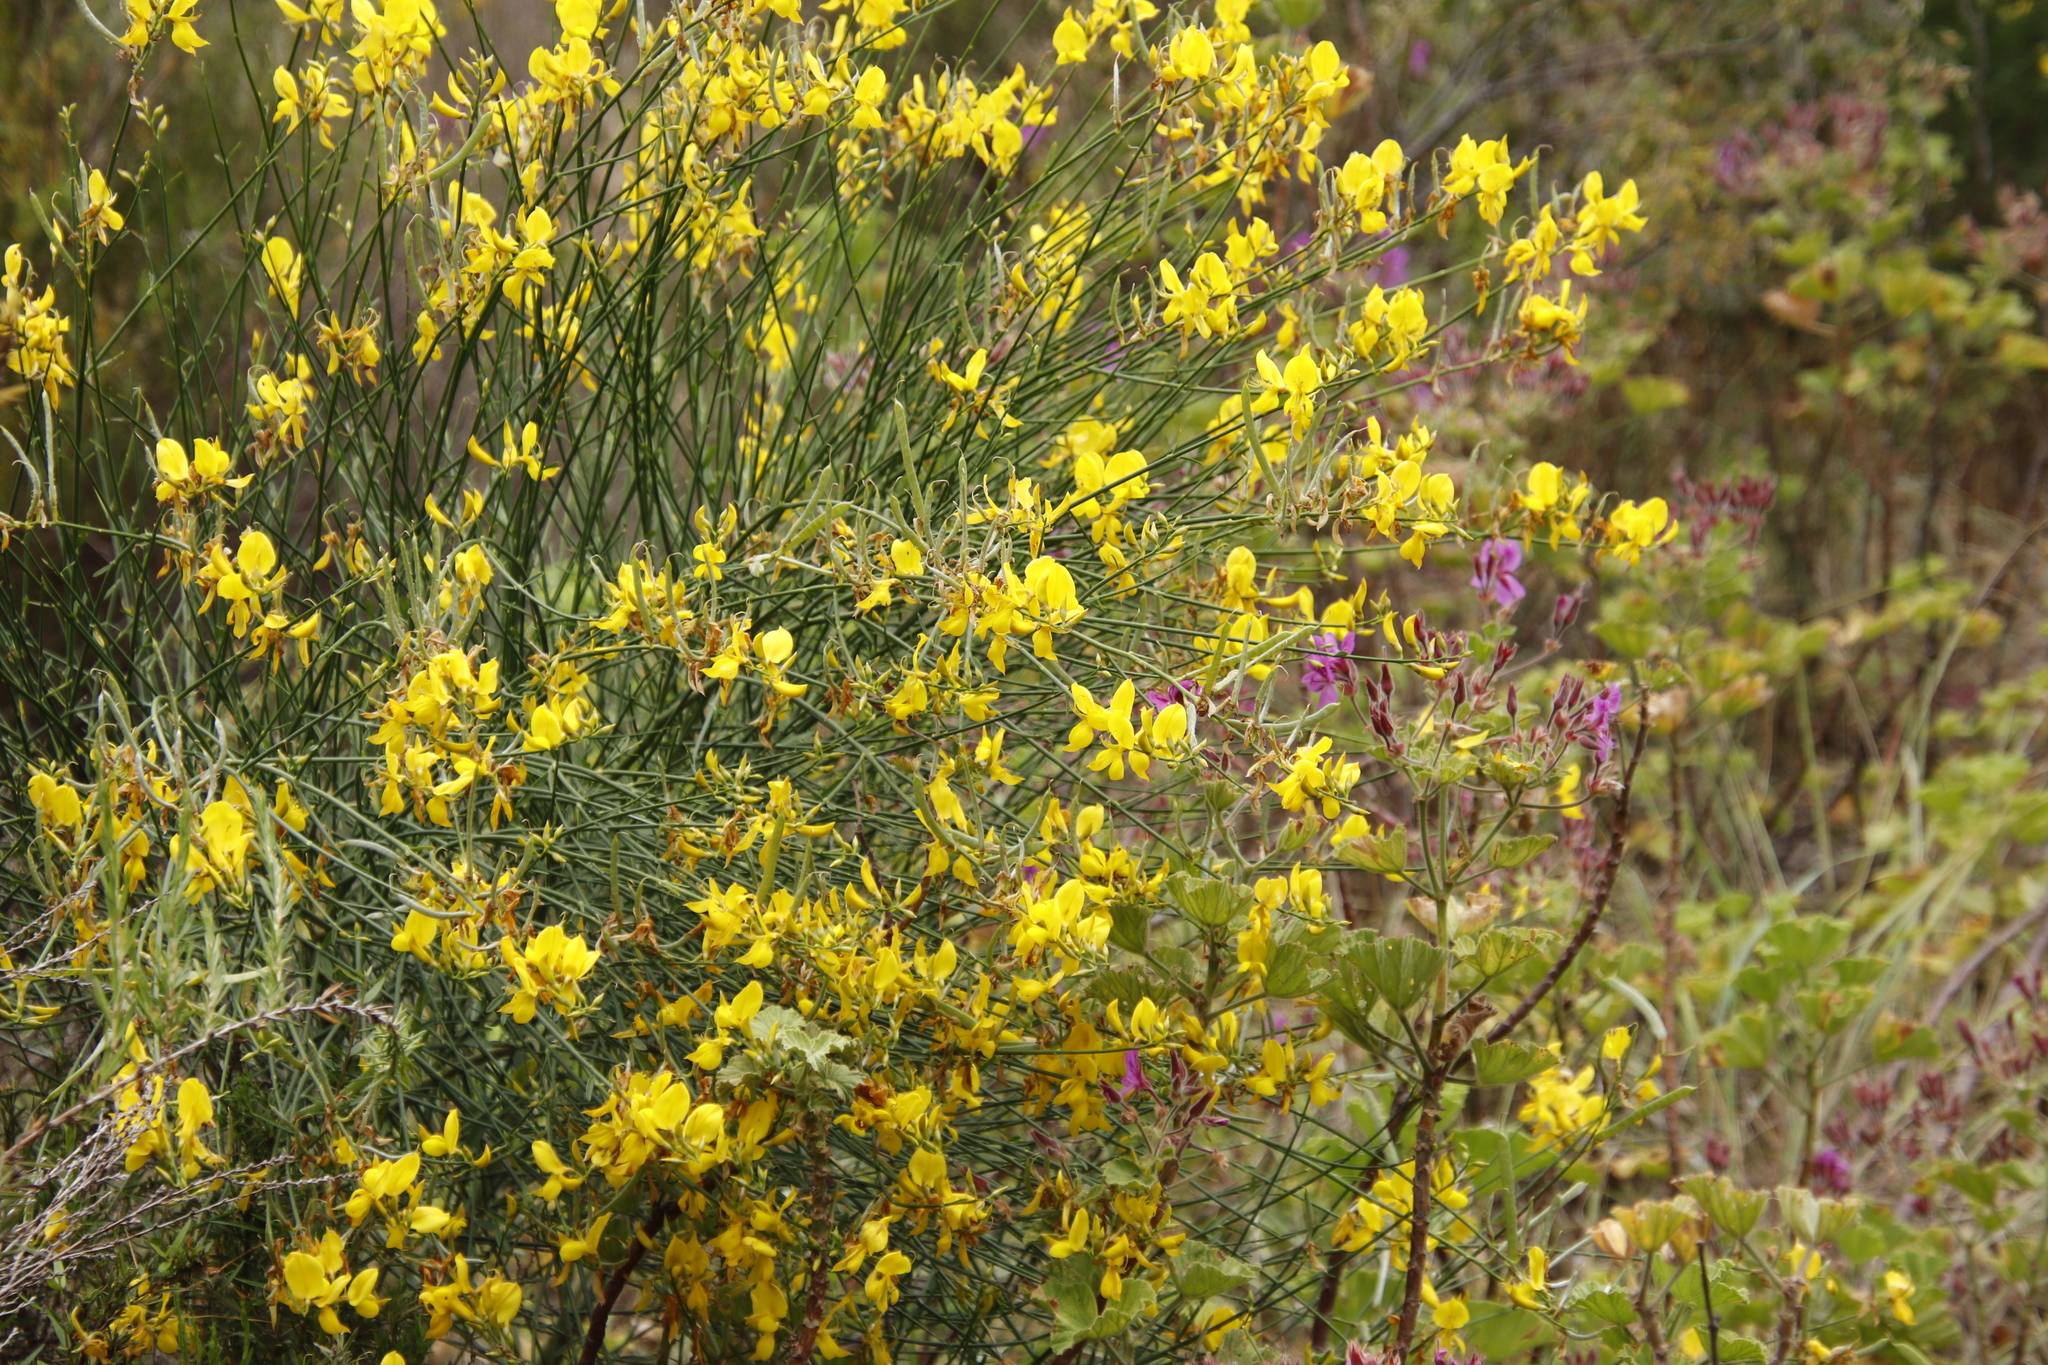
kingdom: Plantae
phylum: Tracheophyta
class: Magnoliopsida
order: Fabales
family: Fabaceae
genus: Spartium
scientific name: Spartium junceum
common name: Spanish broom
